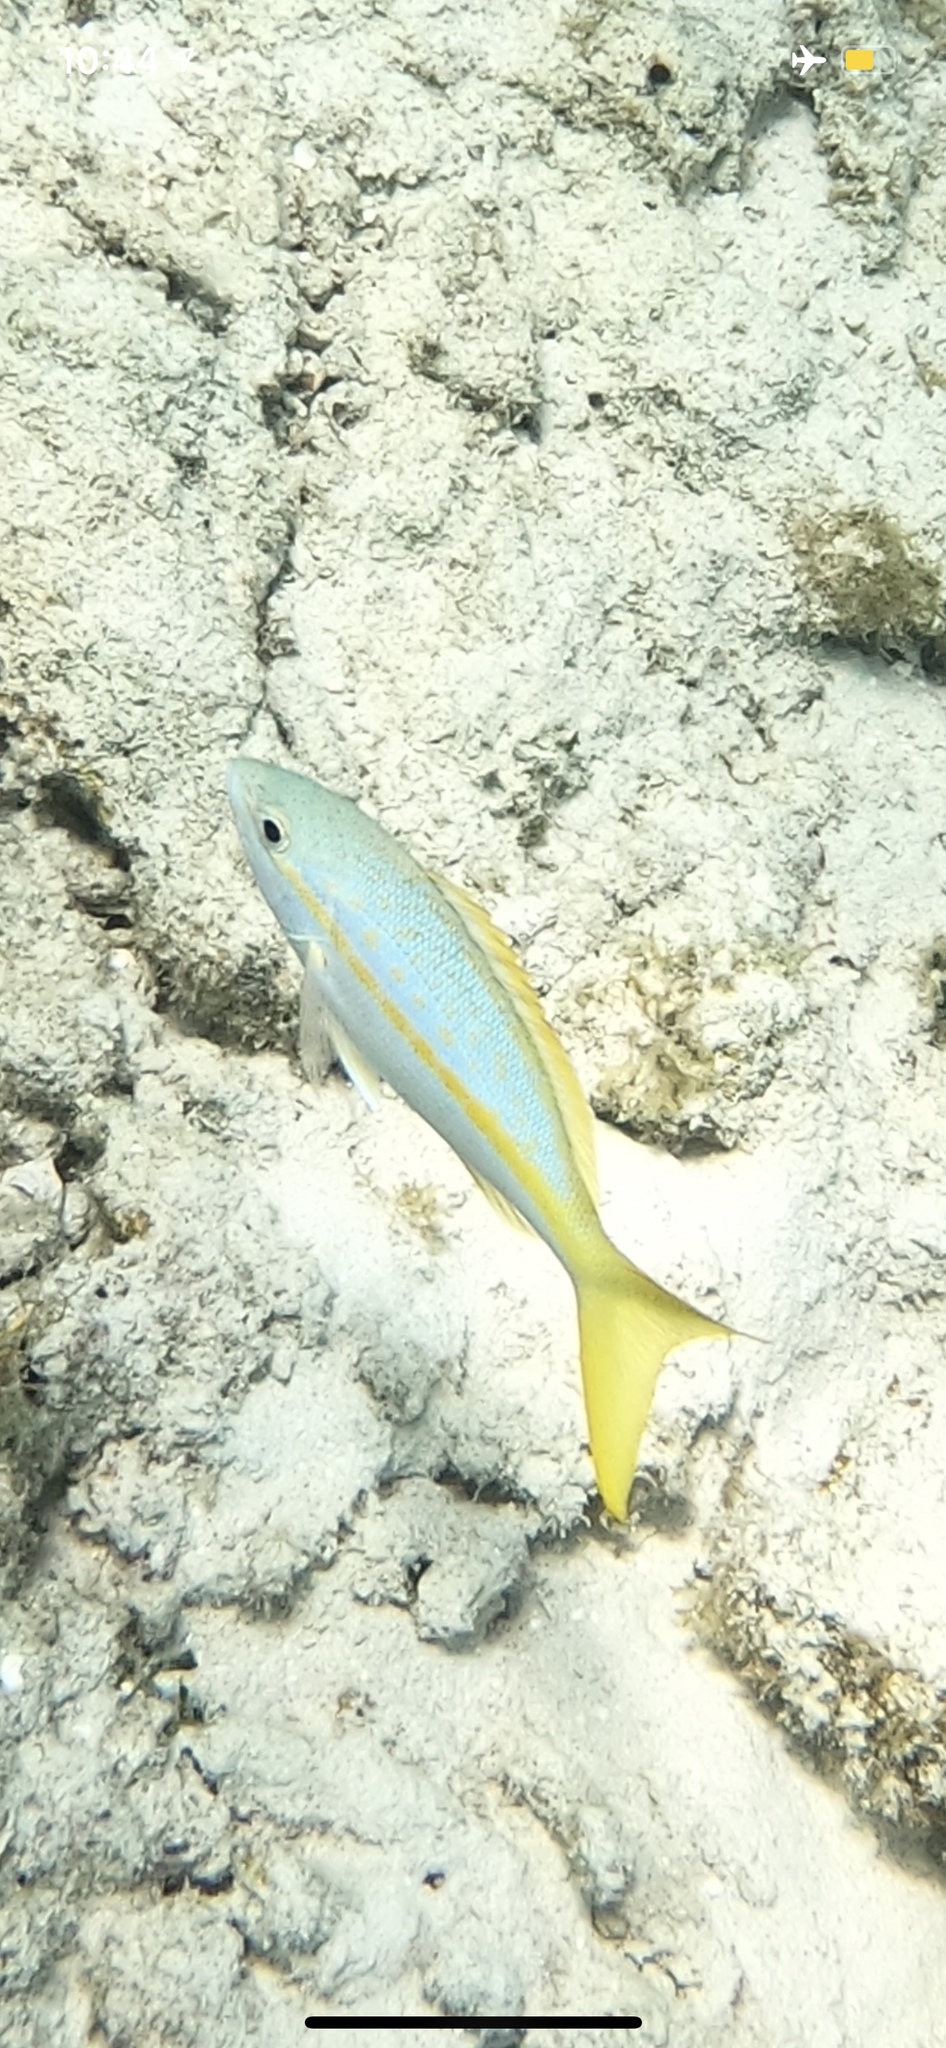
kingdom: Animalia
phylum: Chordata
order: Perciformes
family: Lutjanidae
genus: Ocyurus
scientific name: Ocyurus chrysurus
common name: Yellowtail snapper
